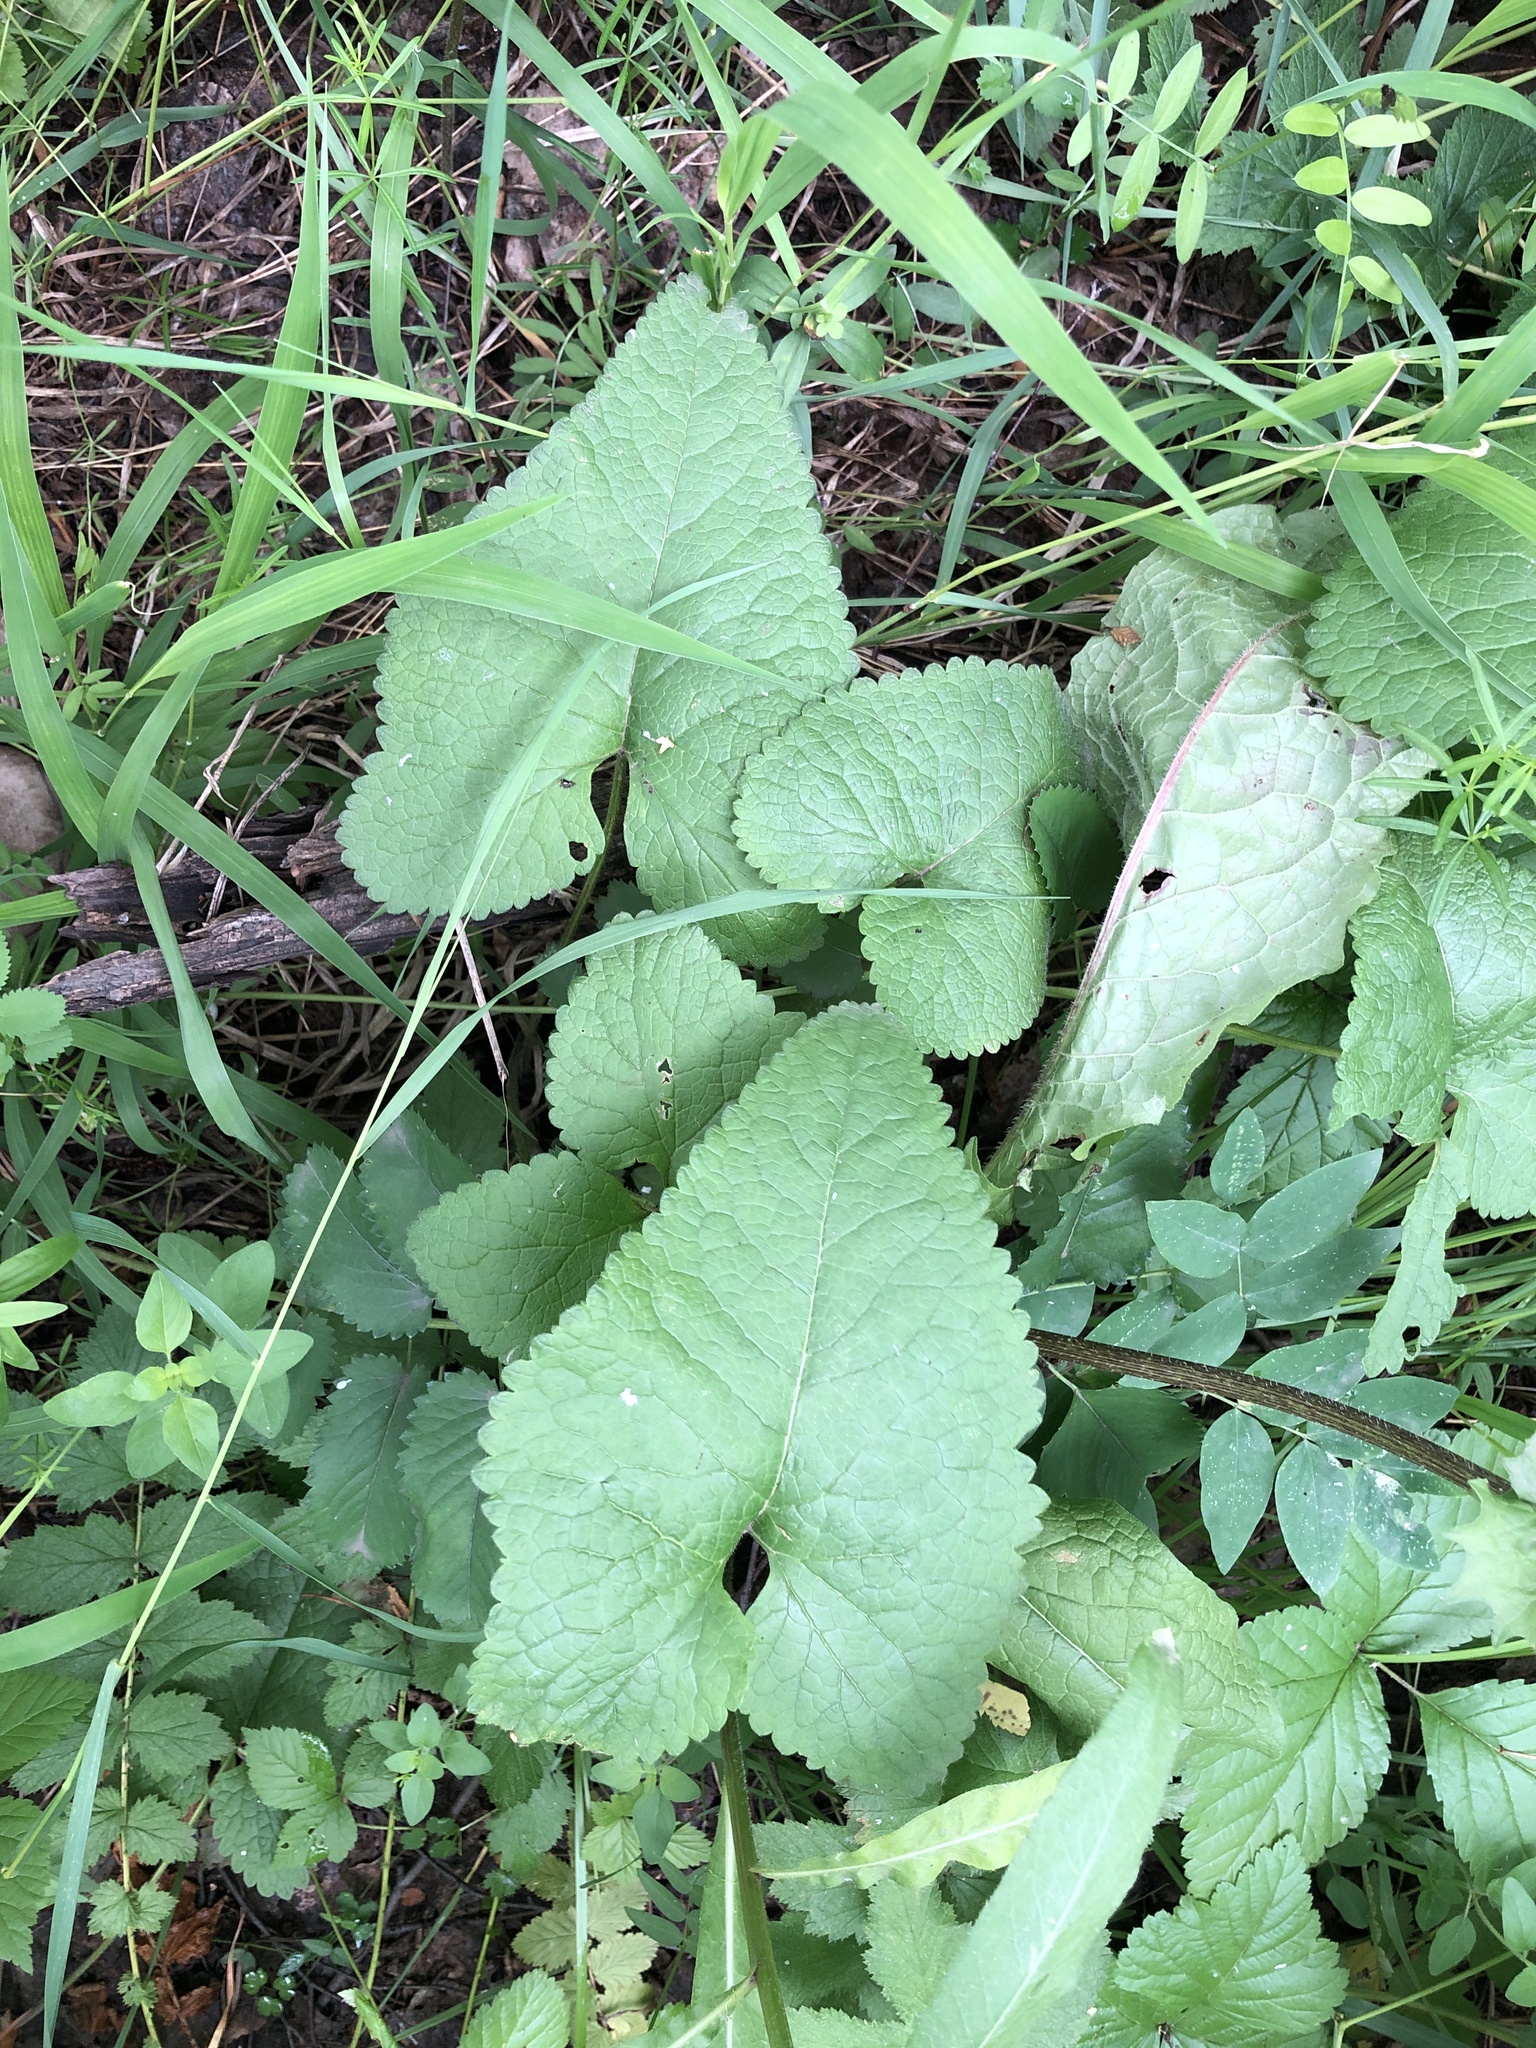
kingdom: Plantae
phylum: Tracheophyta
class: Magnoliopsida
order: Lamiales
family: Lamiaceae
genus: Phlomoides
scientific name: Phlomoides tuberosa
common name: Tuberous jerusalem sage
